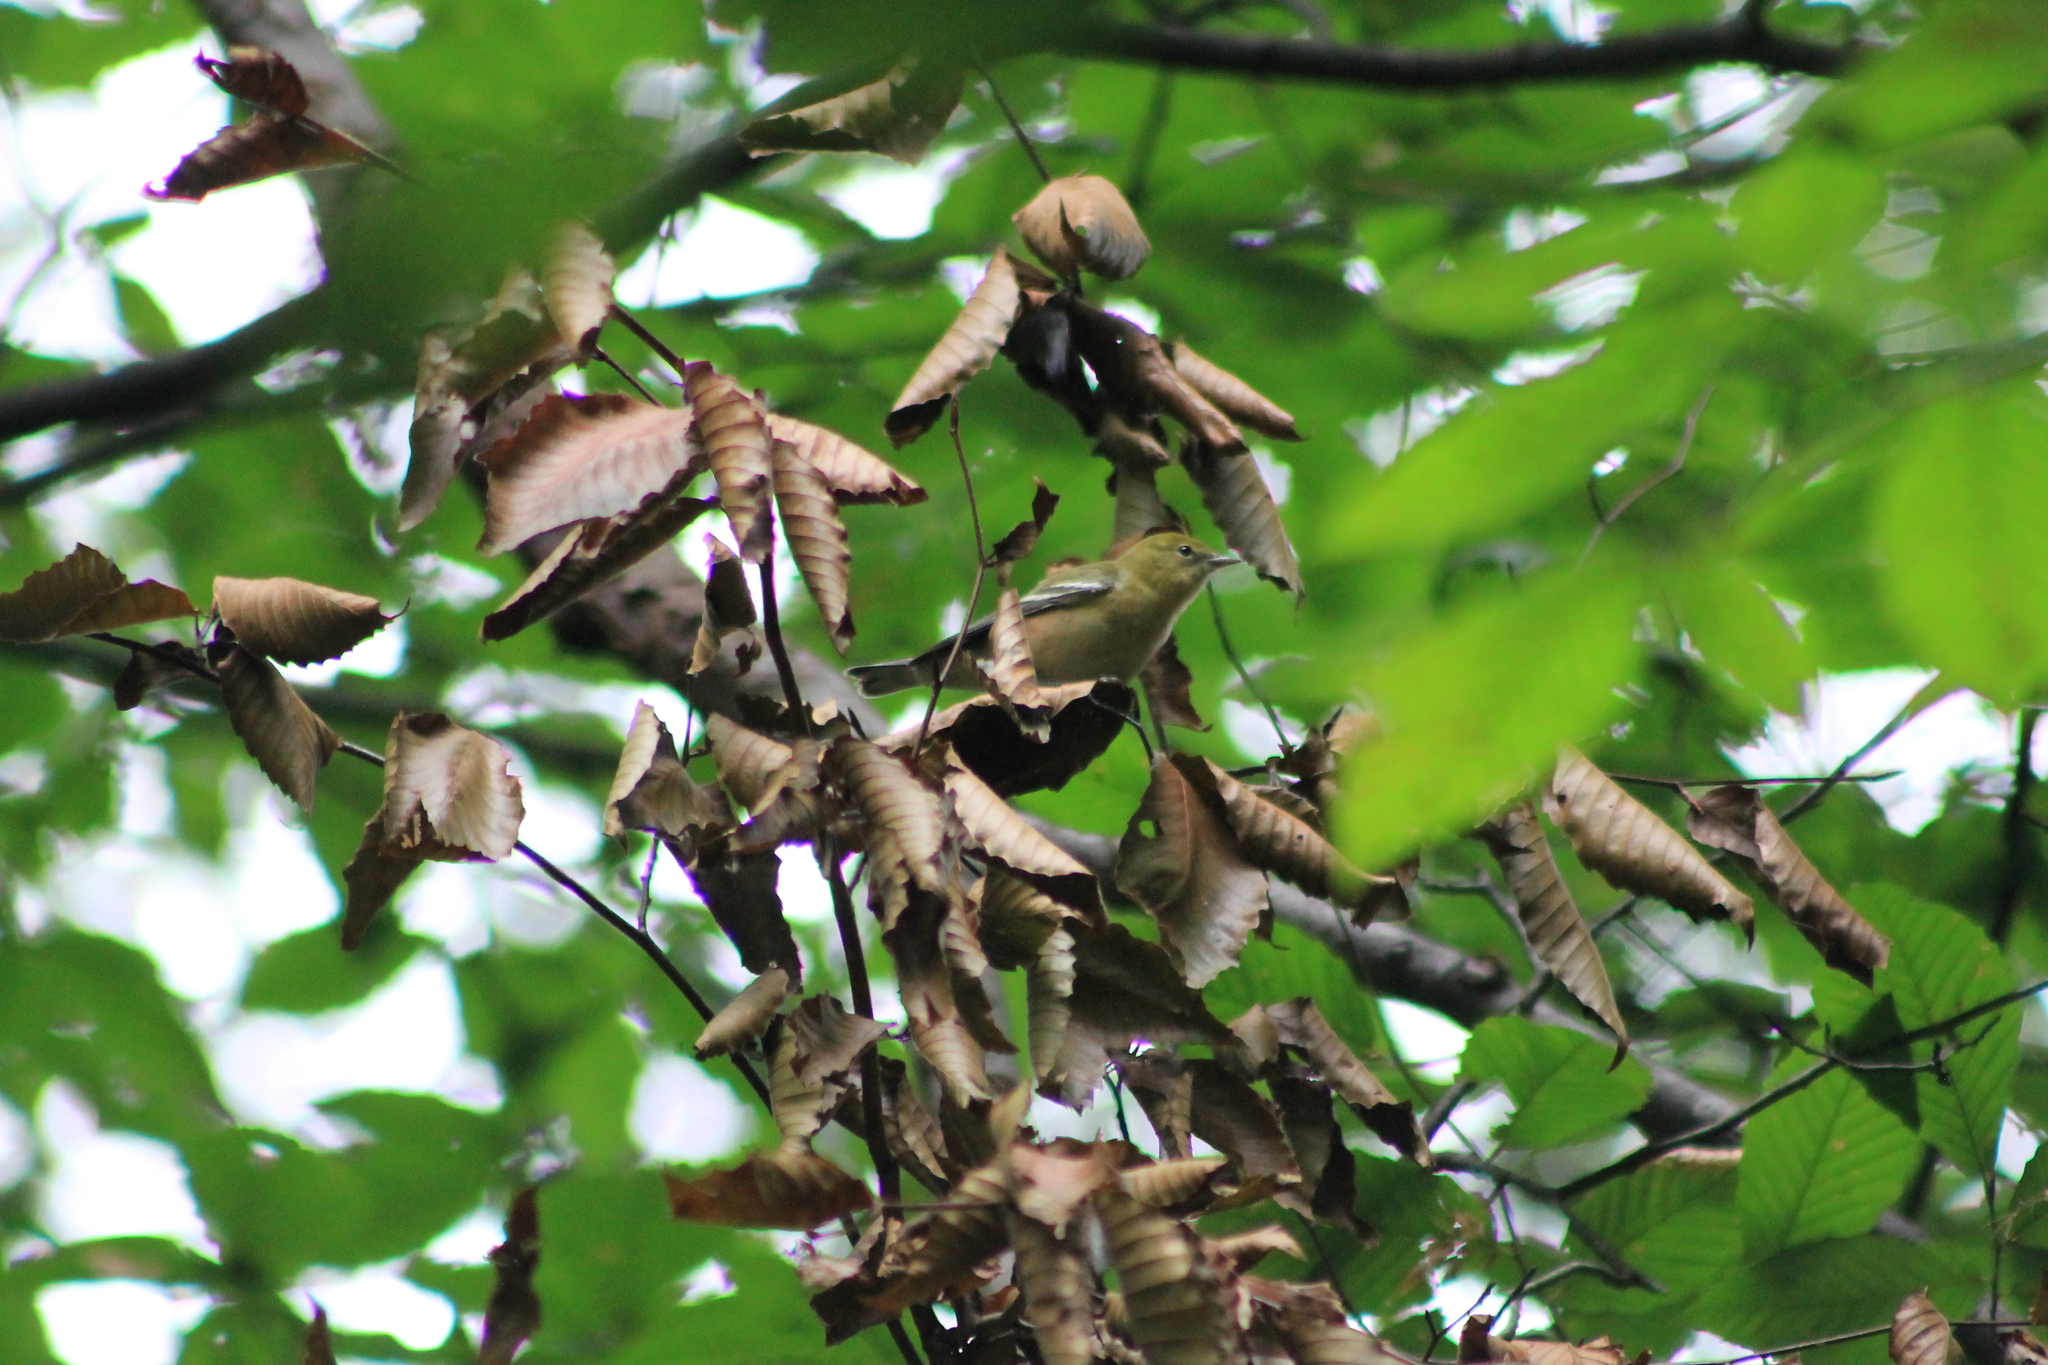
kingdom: Animalia
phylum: Chordata
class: Aves
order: Passeriformes
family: Parulidae
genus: Setophaga
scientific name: Setophaga castanea
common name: Bay-breasted warbler
